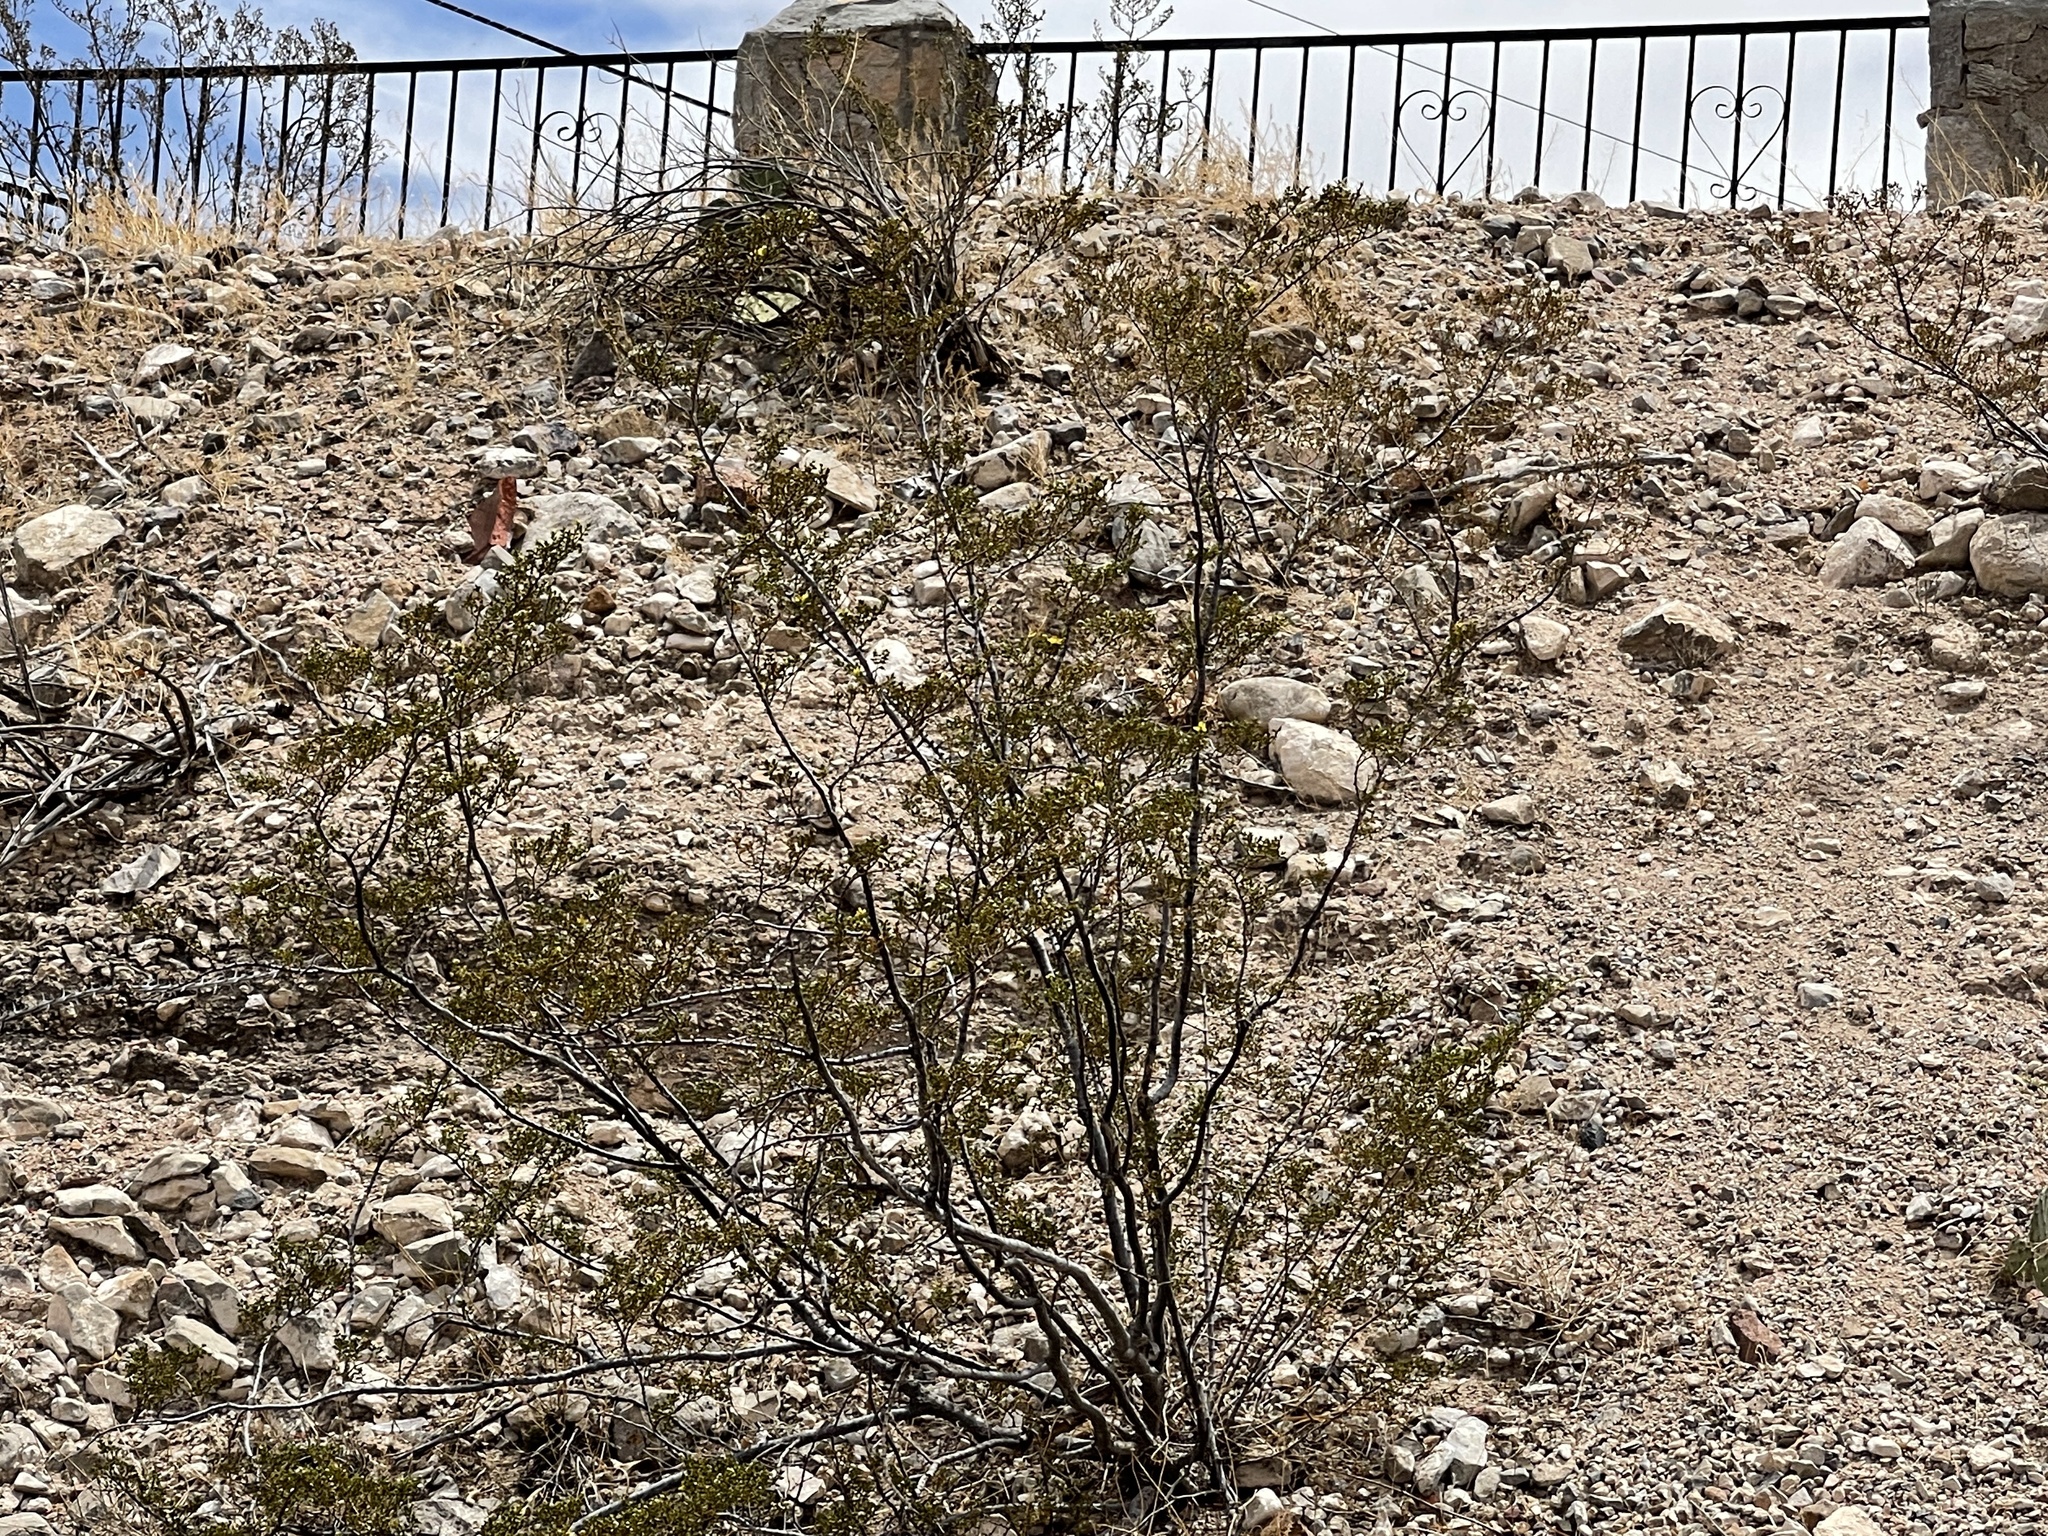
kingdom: Plantae
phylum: Tracheophyta
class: Magnoliopsida
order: Zygophyllales
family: Zygophyllaceae
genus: Larrea
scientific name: Larrea tridentata
